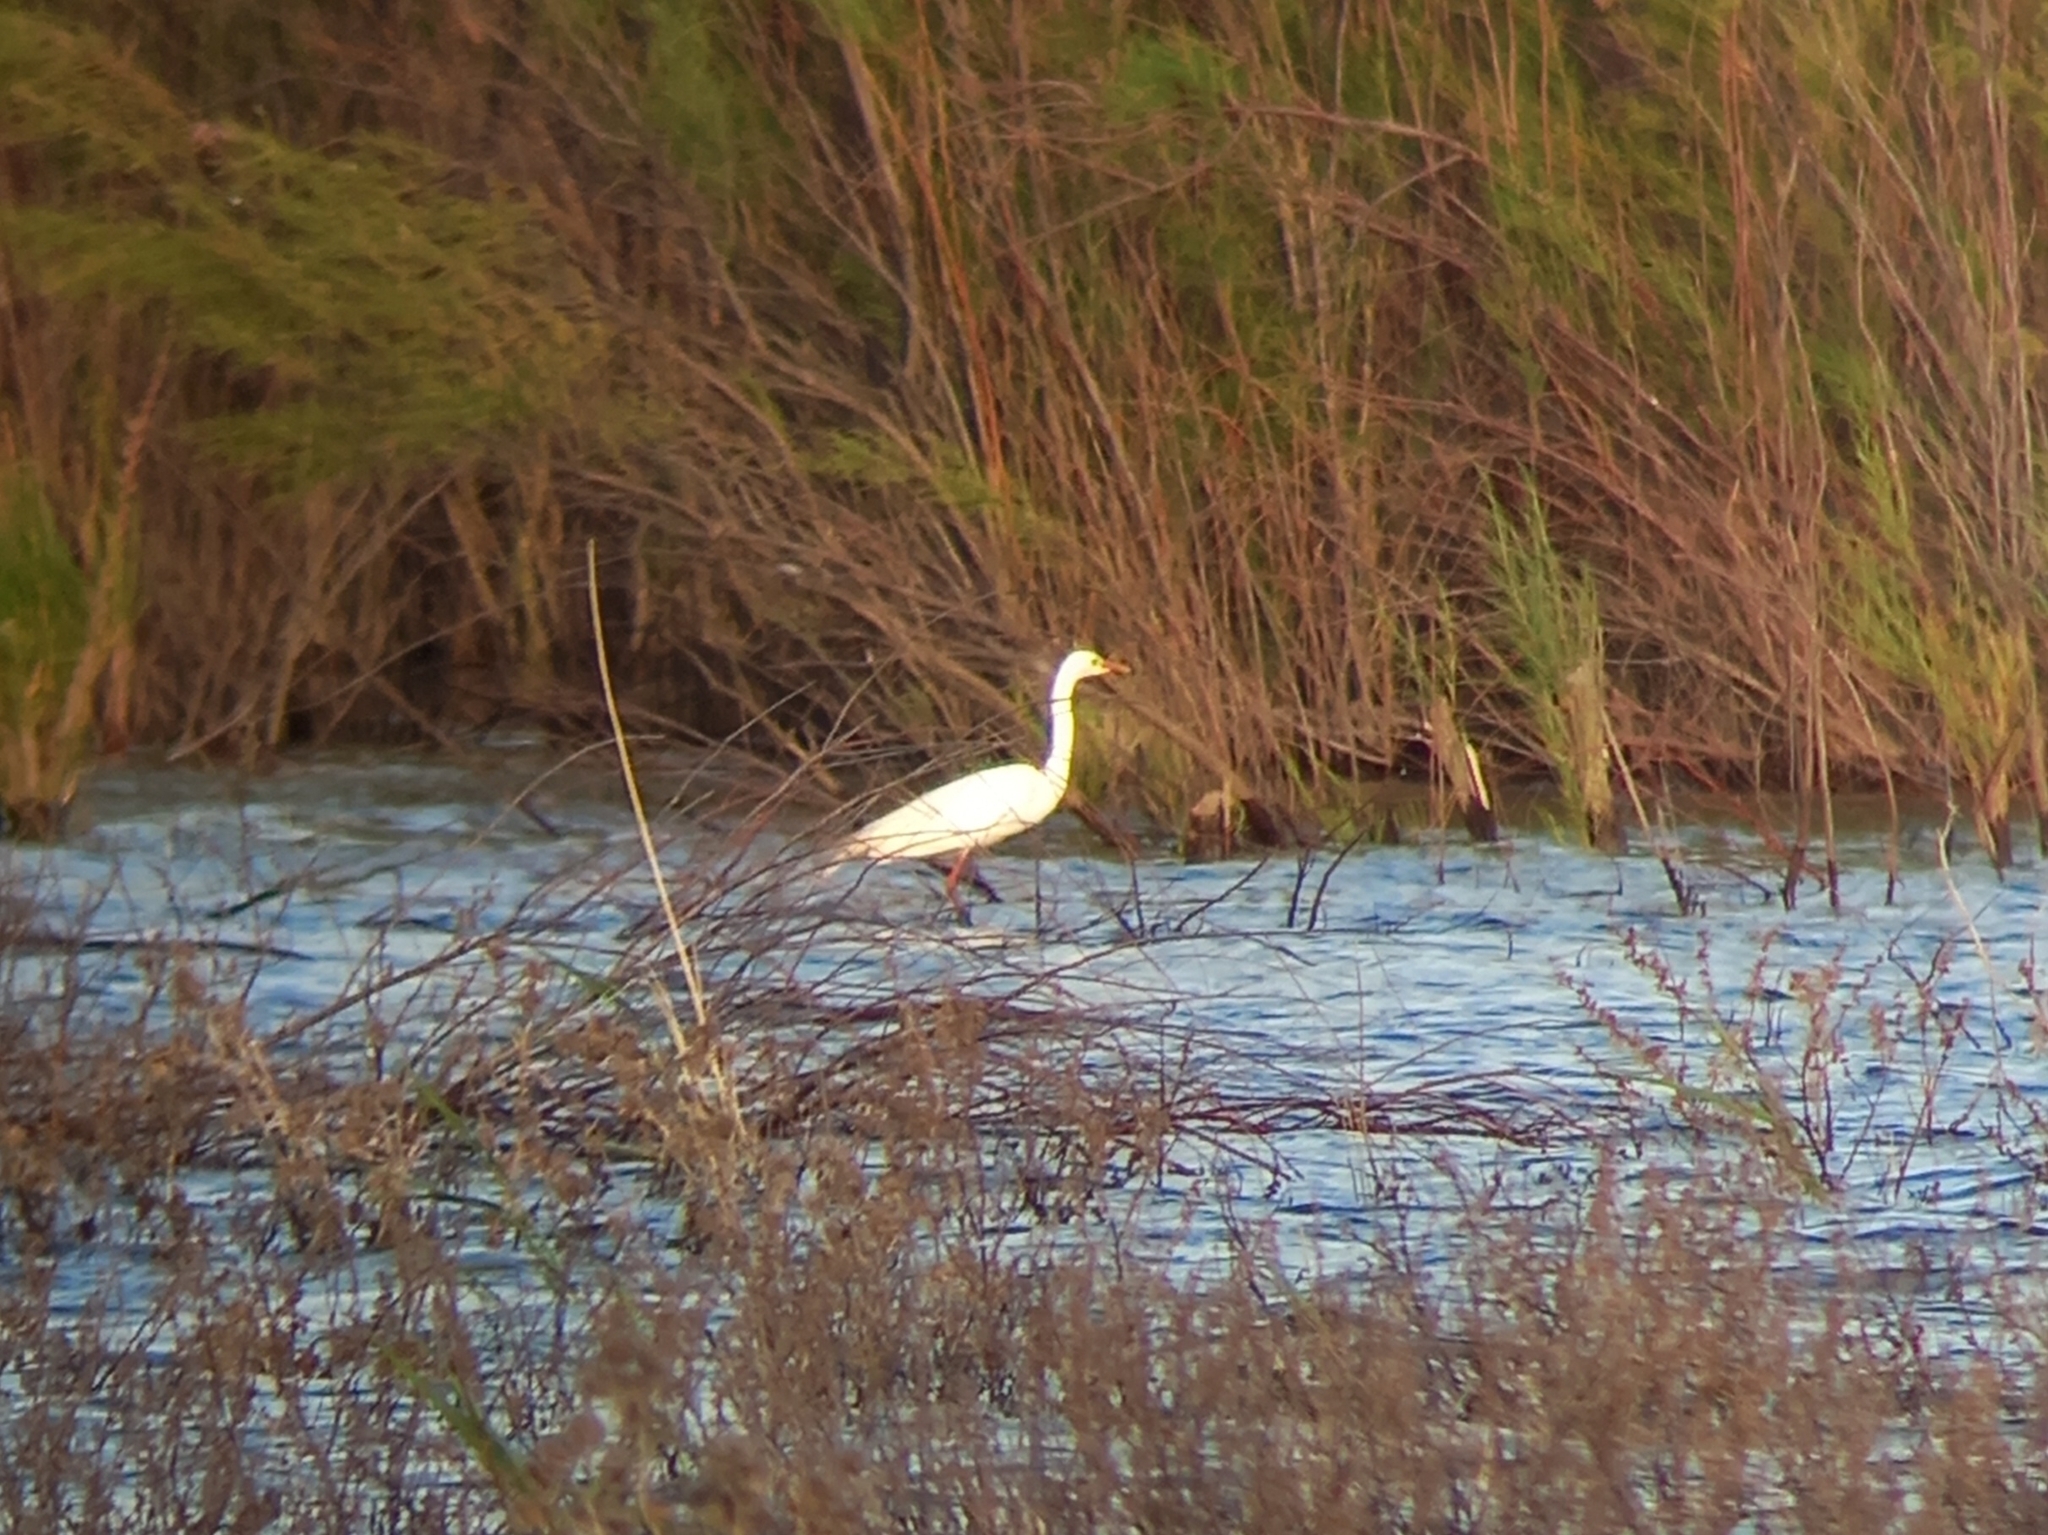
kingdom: Animalia
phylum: Chordata
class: Aves
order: Pelecaniformes
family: Ardeidae
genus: Egretta
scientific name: Egretta intermedia
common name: Intermediate egret
